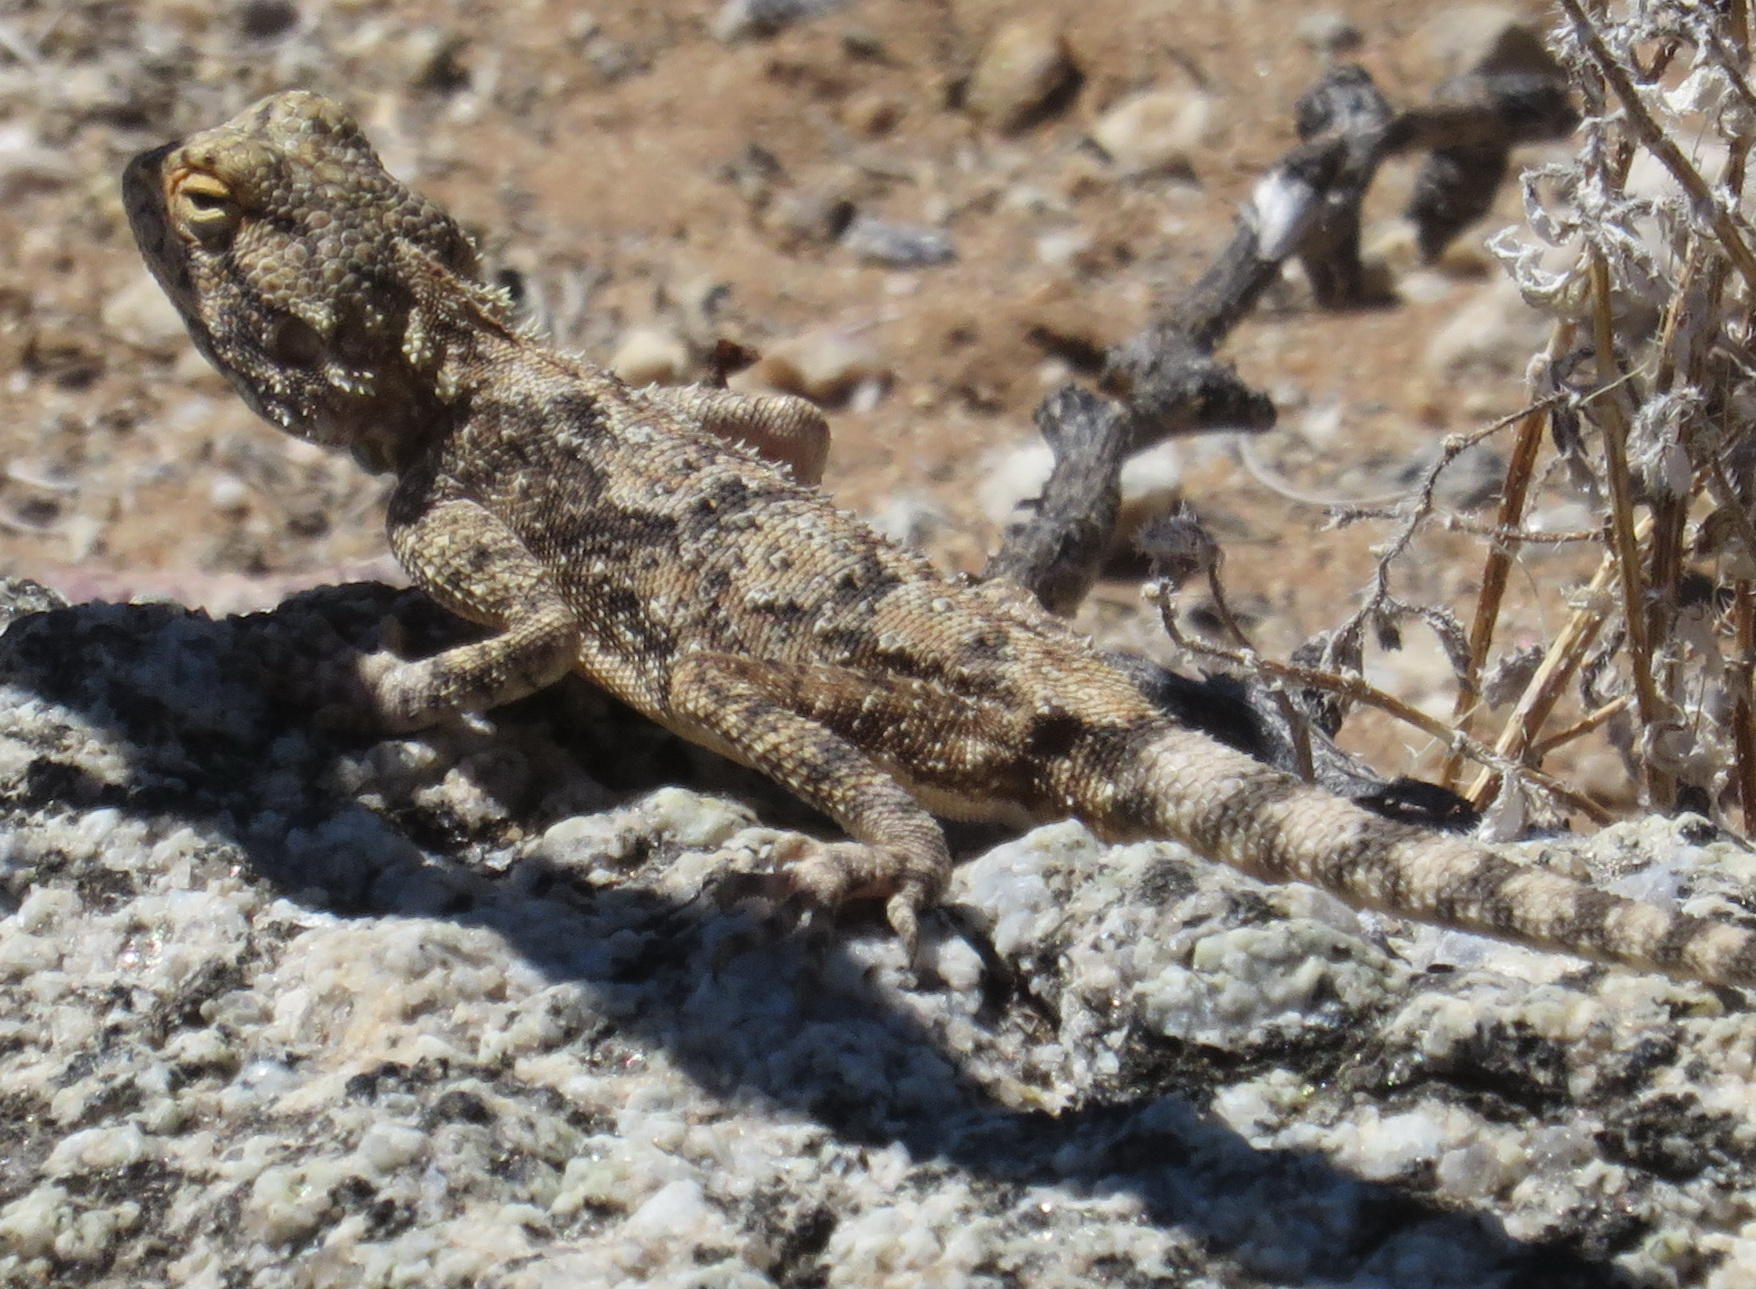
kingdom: Animalia
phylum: Chordata
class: Squamata
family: Agamidae
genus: Agama
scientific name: Agama anchietae
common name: Anchieta's agama
